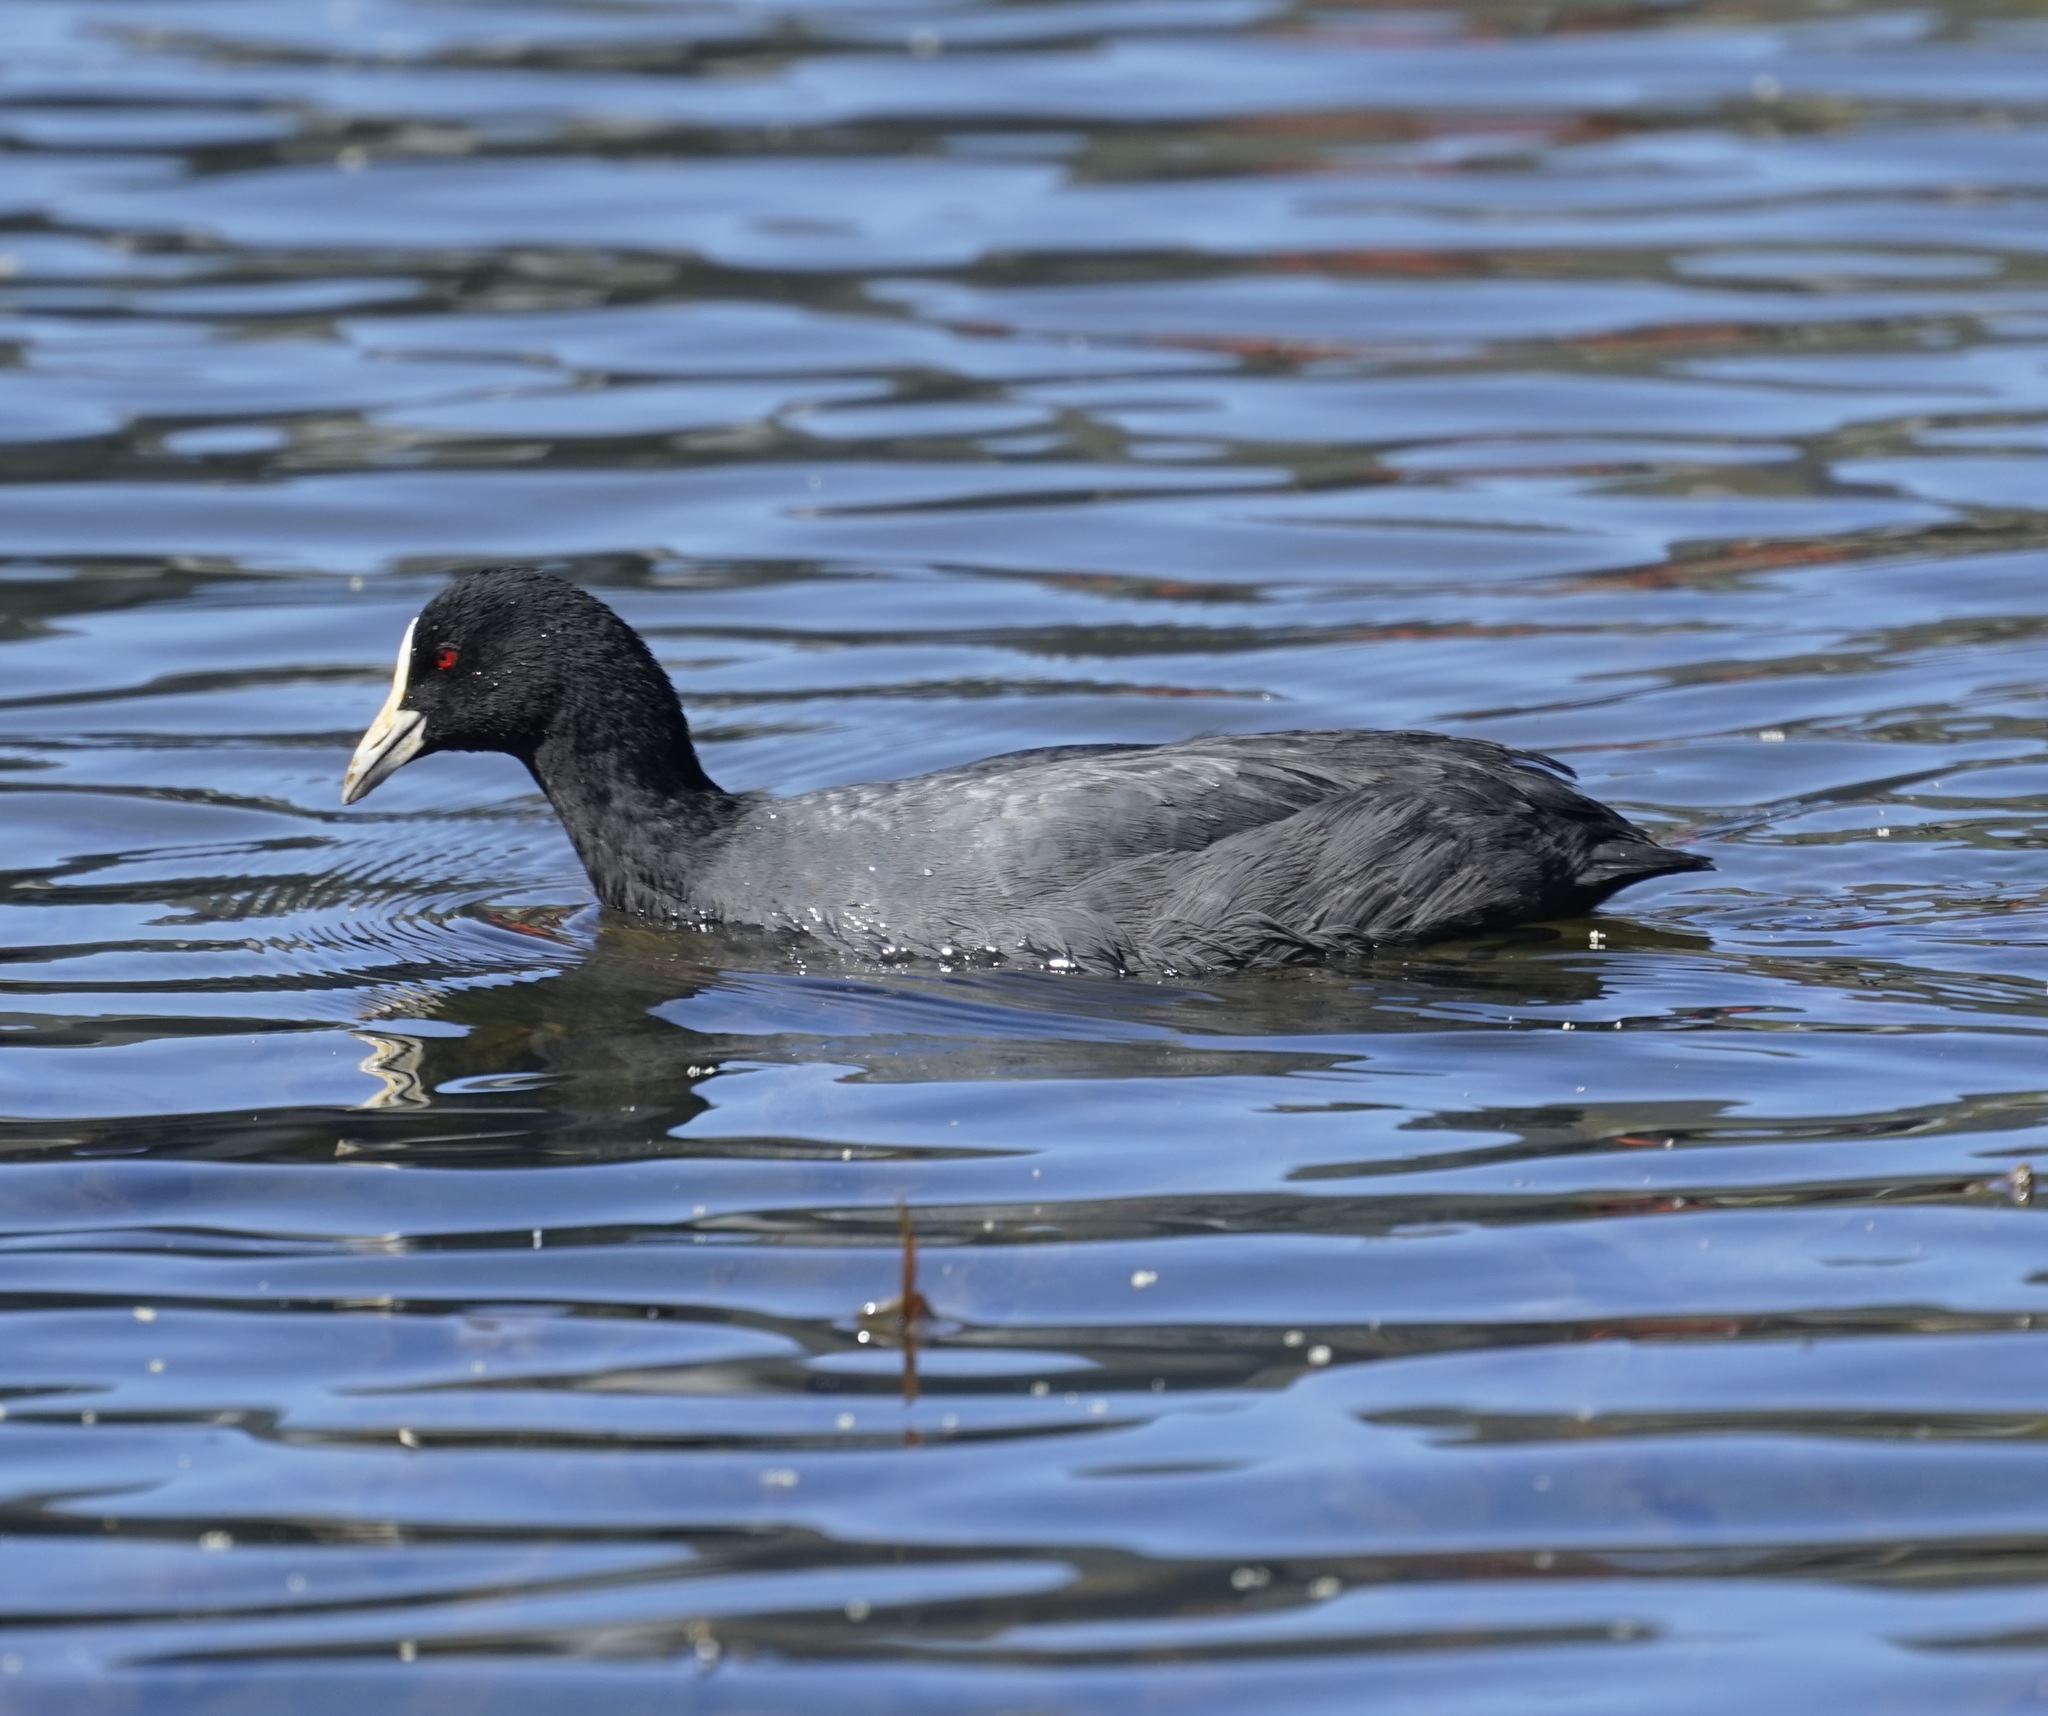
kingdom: Animalia
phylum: Chordata
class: Aves
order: Gruiformes
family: Rallidae
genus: Fulica
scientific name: Fulica atra
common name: Eurasian coot
